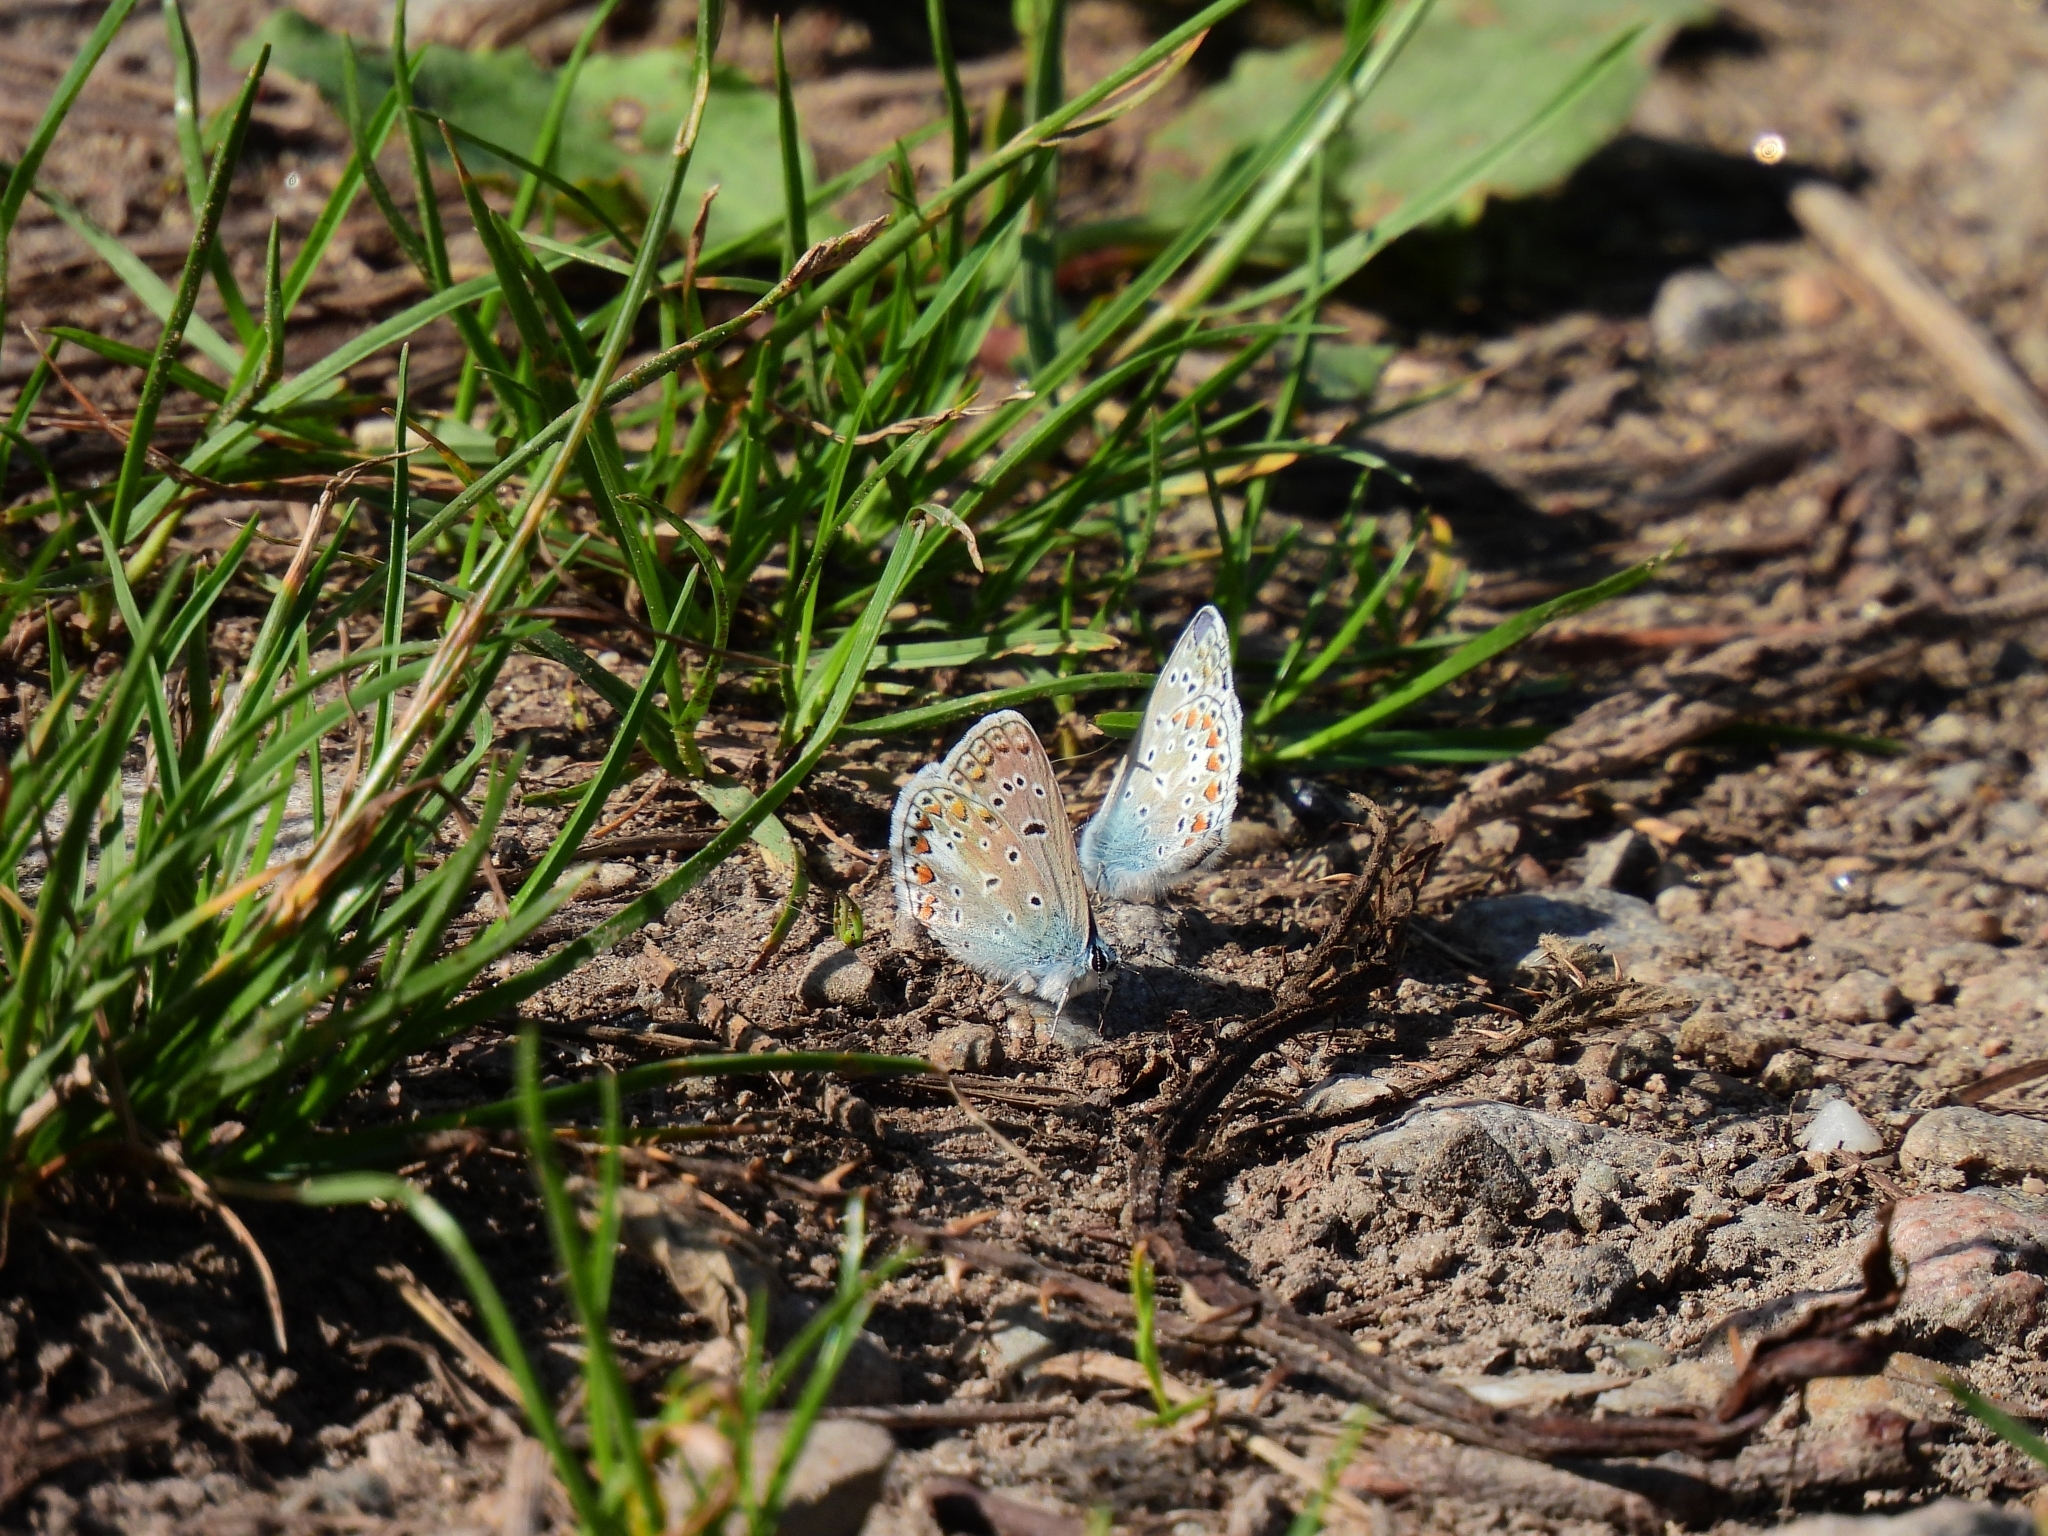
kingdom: Animalia
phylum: Arthropoda
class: Insecta
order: Lepidoptera
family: Lycaenidae
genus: Polyommatus
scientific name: Polyommatus icarus
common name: Common blue
